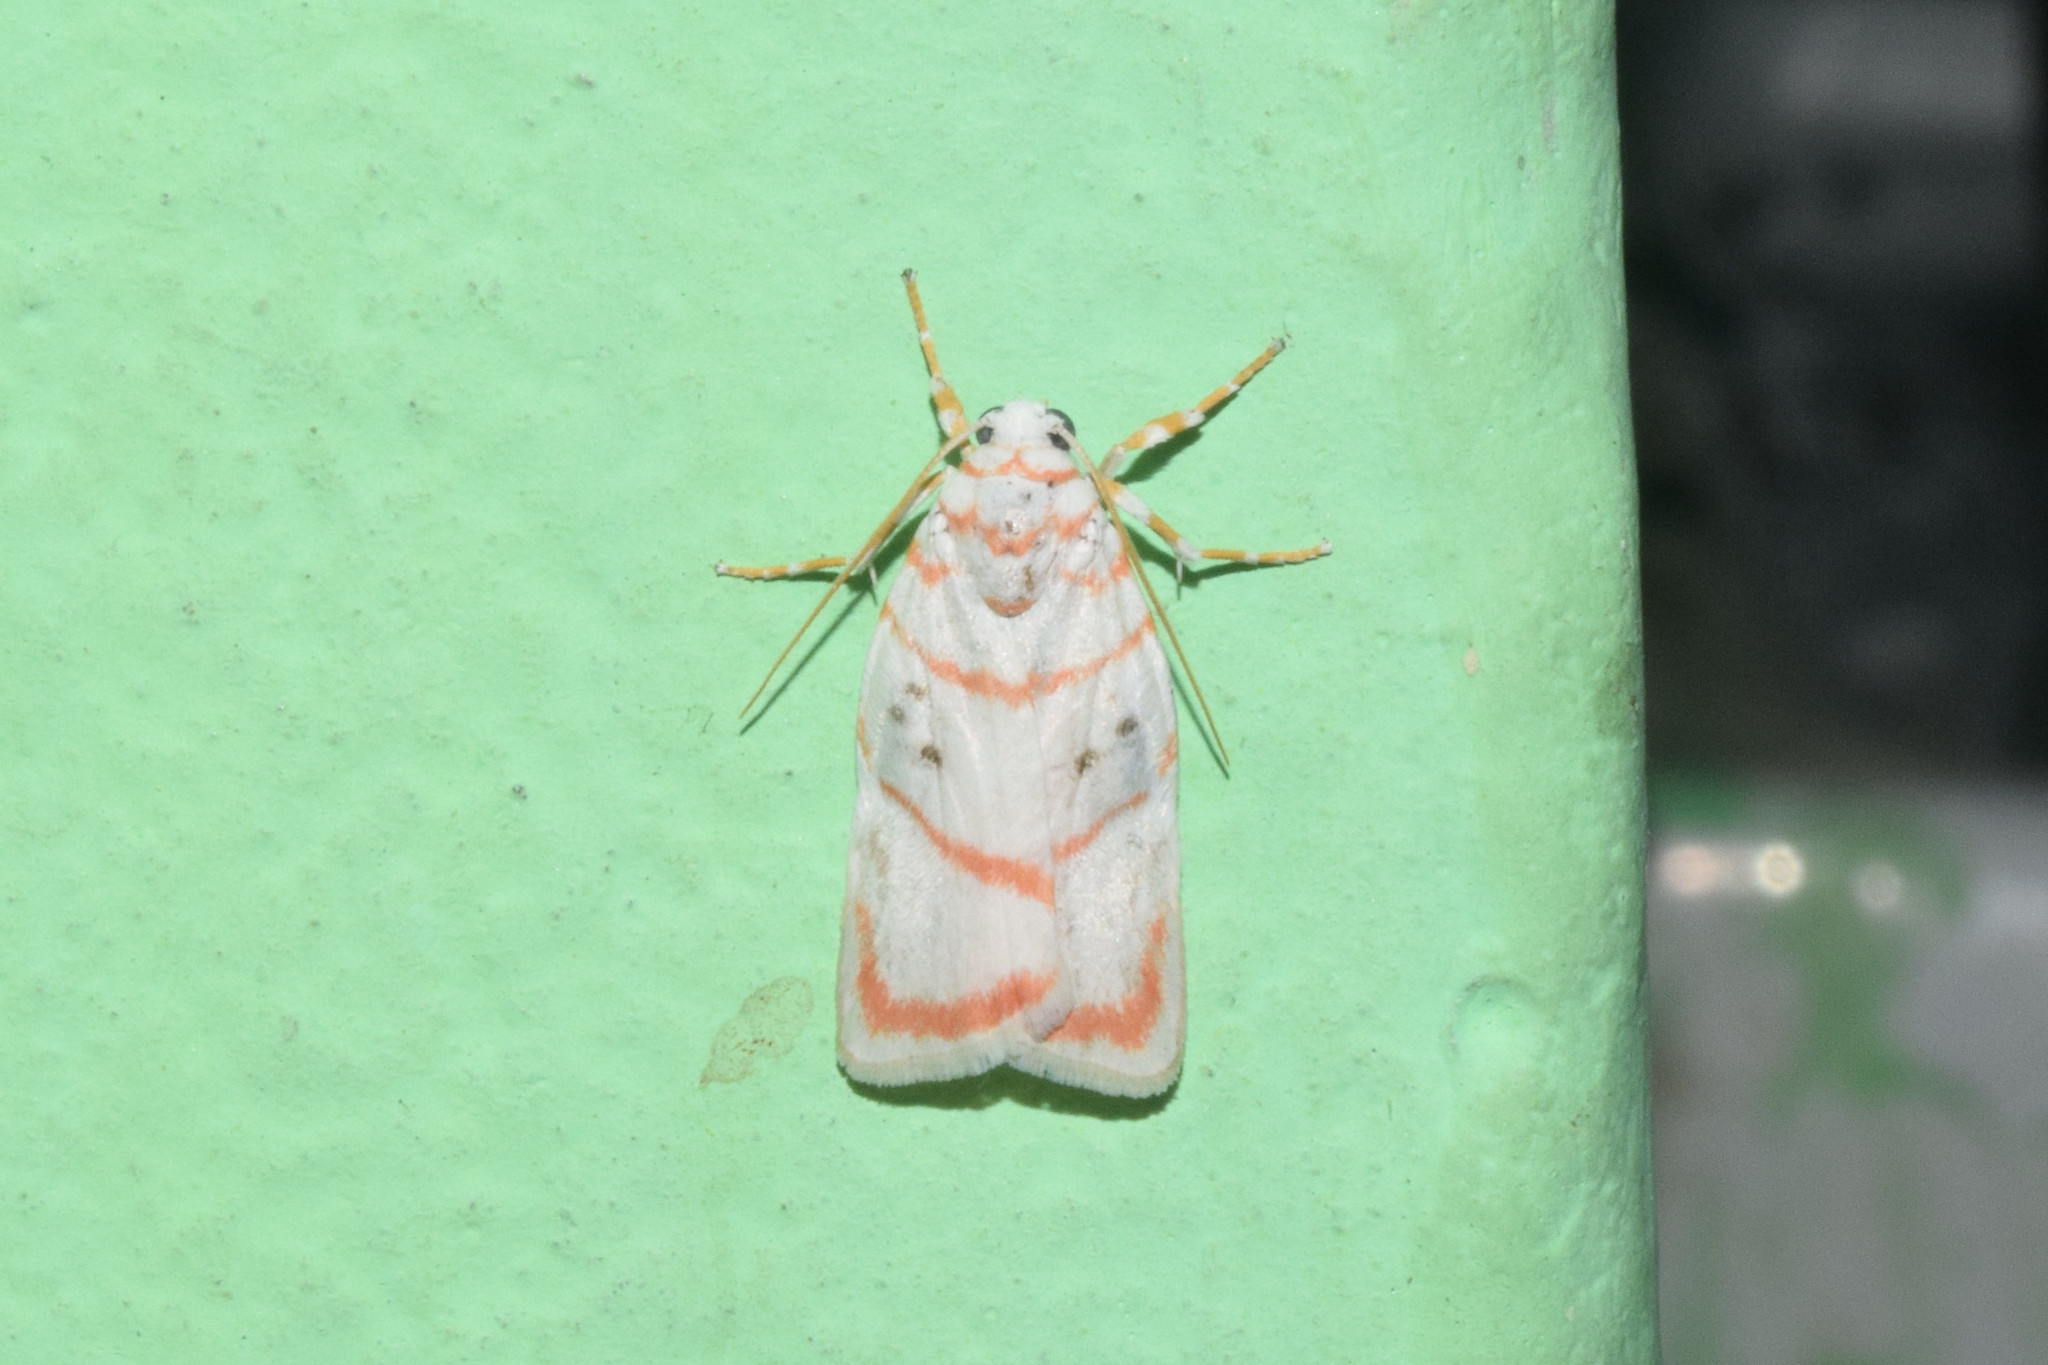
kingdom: Animalia
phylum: Arthropoda
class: Insecta
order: Lepidoptera
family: Erebidae
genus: Cyana
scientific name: Cyana obliquilineata
